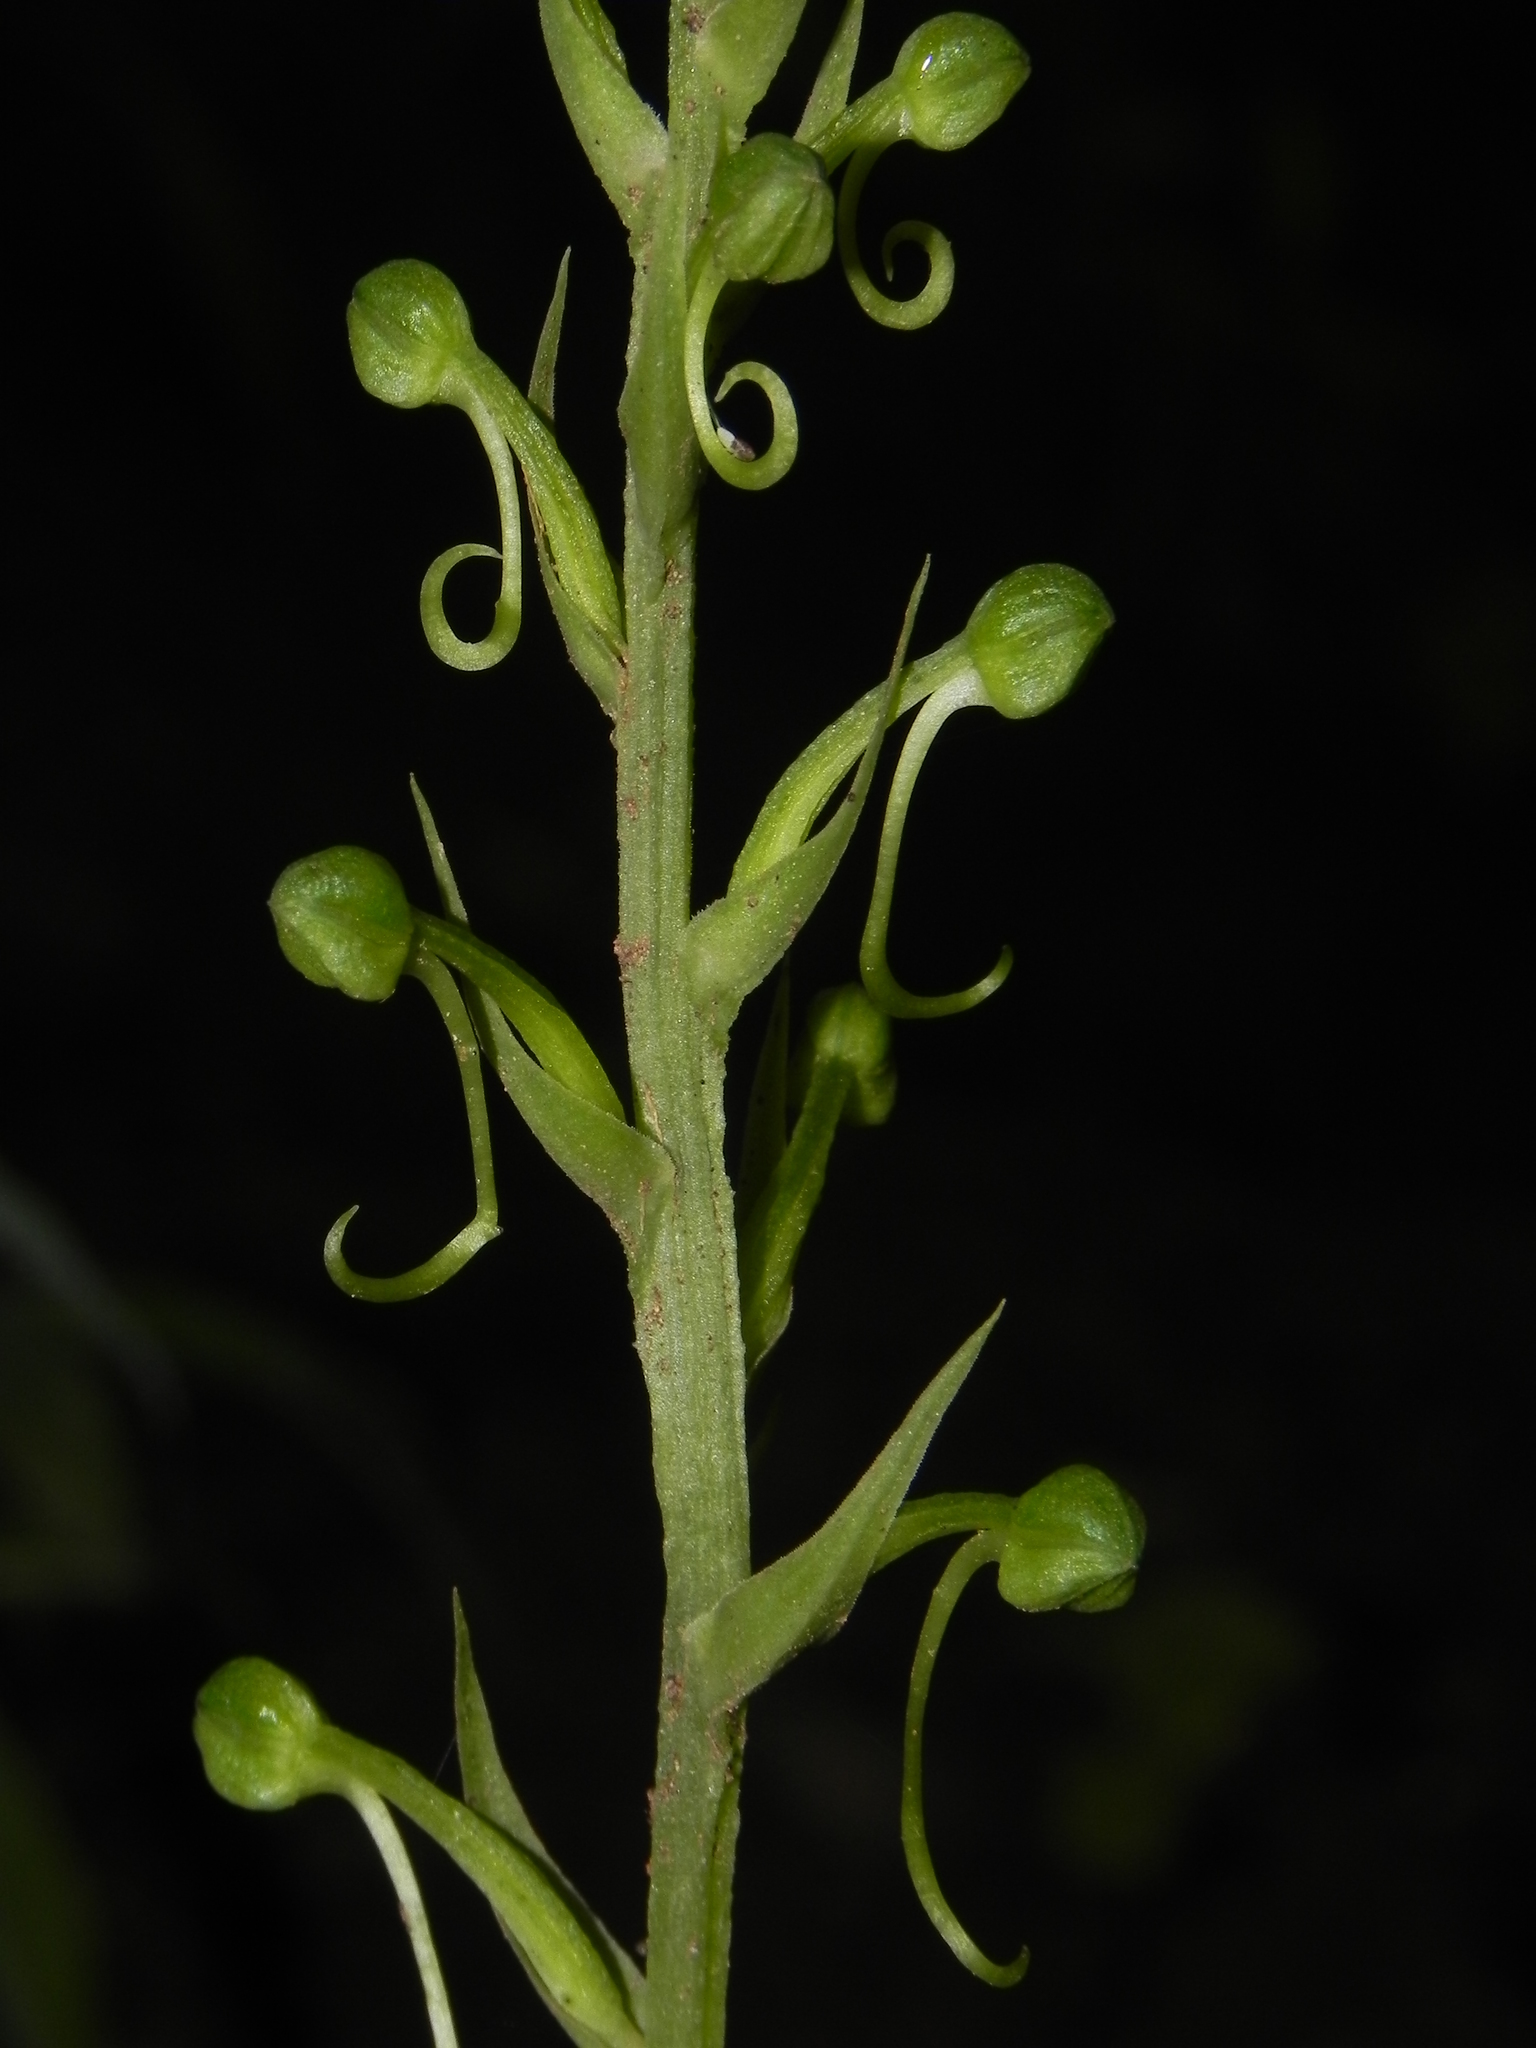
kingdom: Plantae
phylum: Tracheophyta
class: Liliopsida
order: Asparagales
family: Orchidaceae
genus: Habenaria
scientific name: Habenaria furcifera
